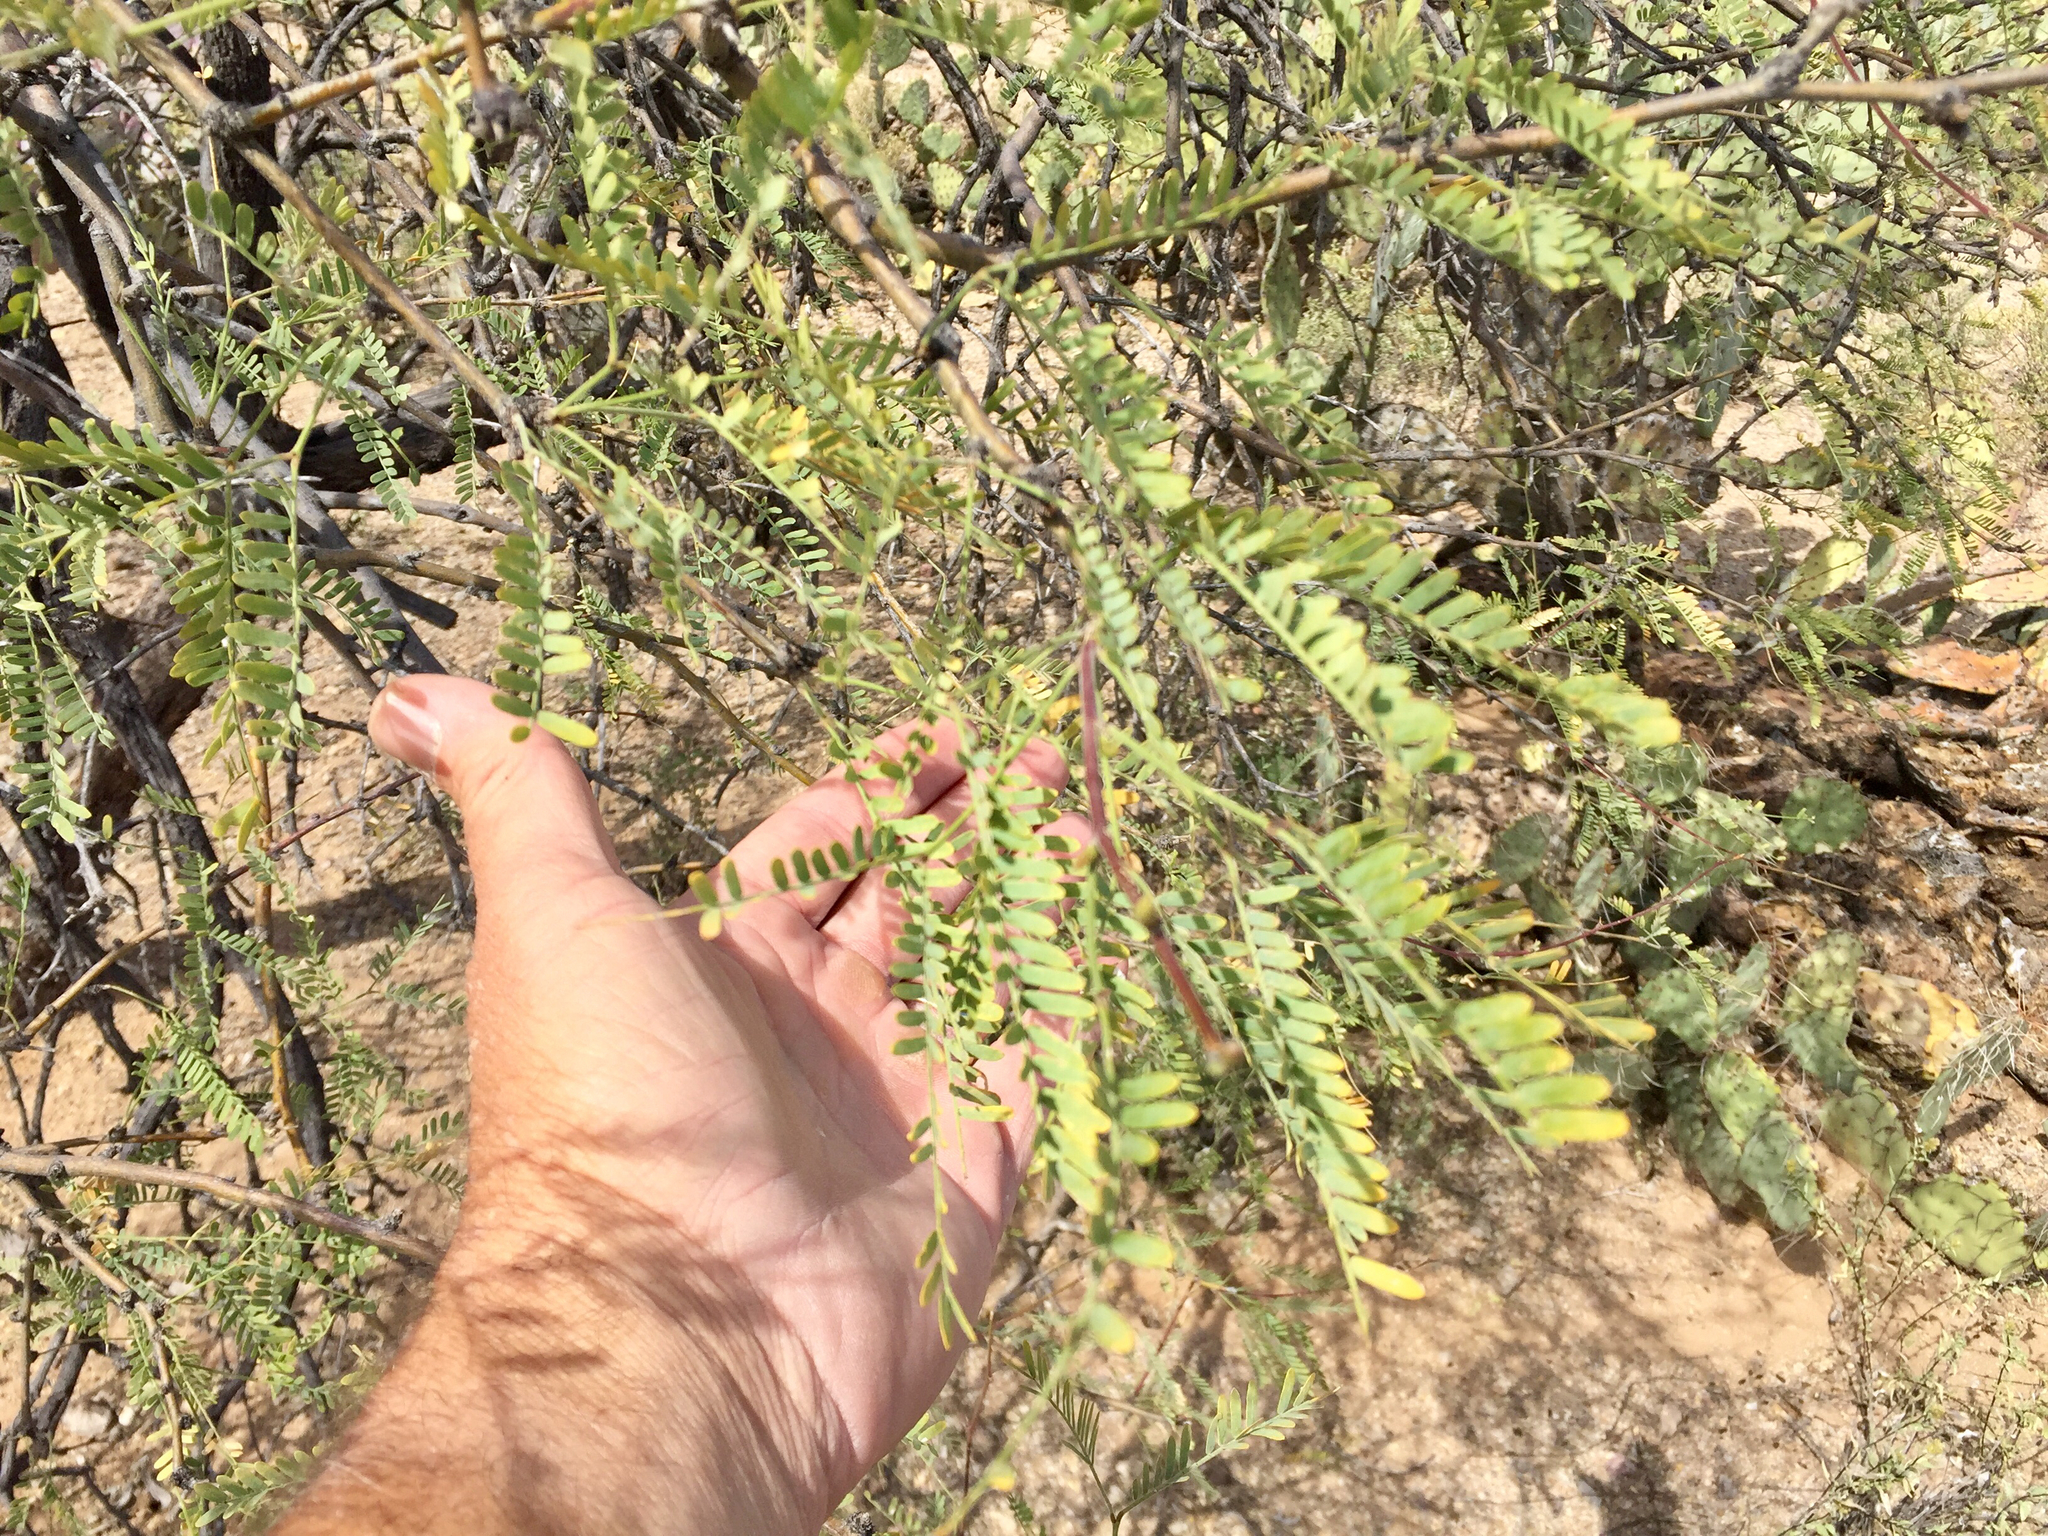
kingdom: Plantae
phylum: Tracheophyta
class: Magnoliopsida
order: Fabales
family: Fabaceae
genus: Prosopis
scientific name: Prosopis velutina
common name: Velvet mesquite
